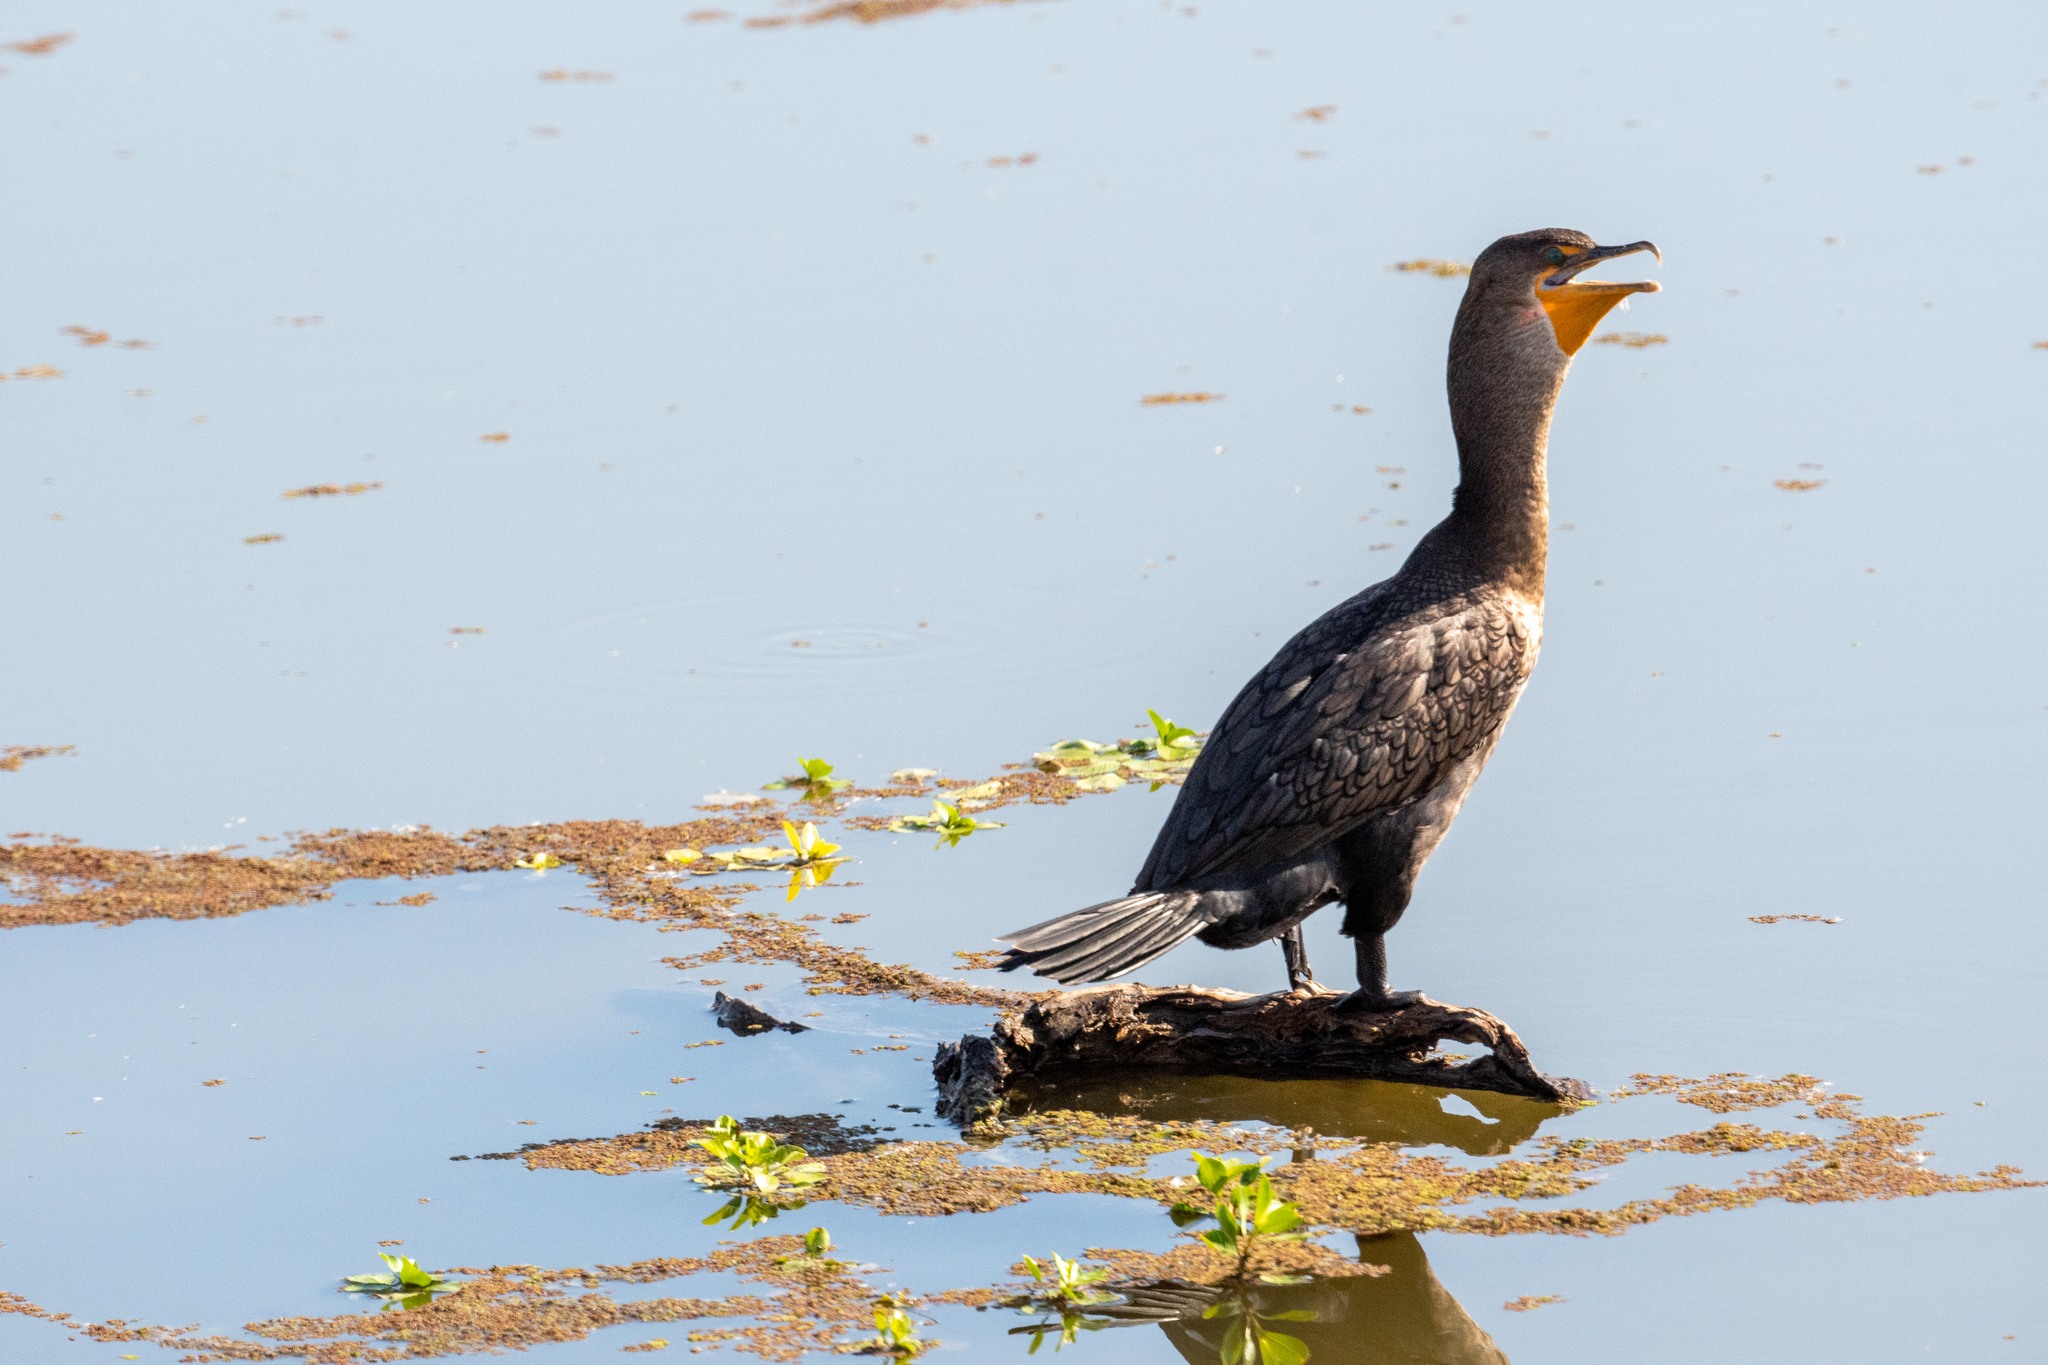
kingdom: Animalia
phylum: Chordata
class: Aves
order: Suliformes
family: Phalacrocoracidae
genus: Phalacrocorax
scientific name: Phalacrocorax auritus
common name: Double-crested cormorant
